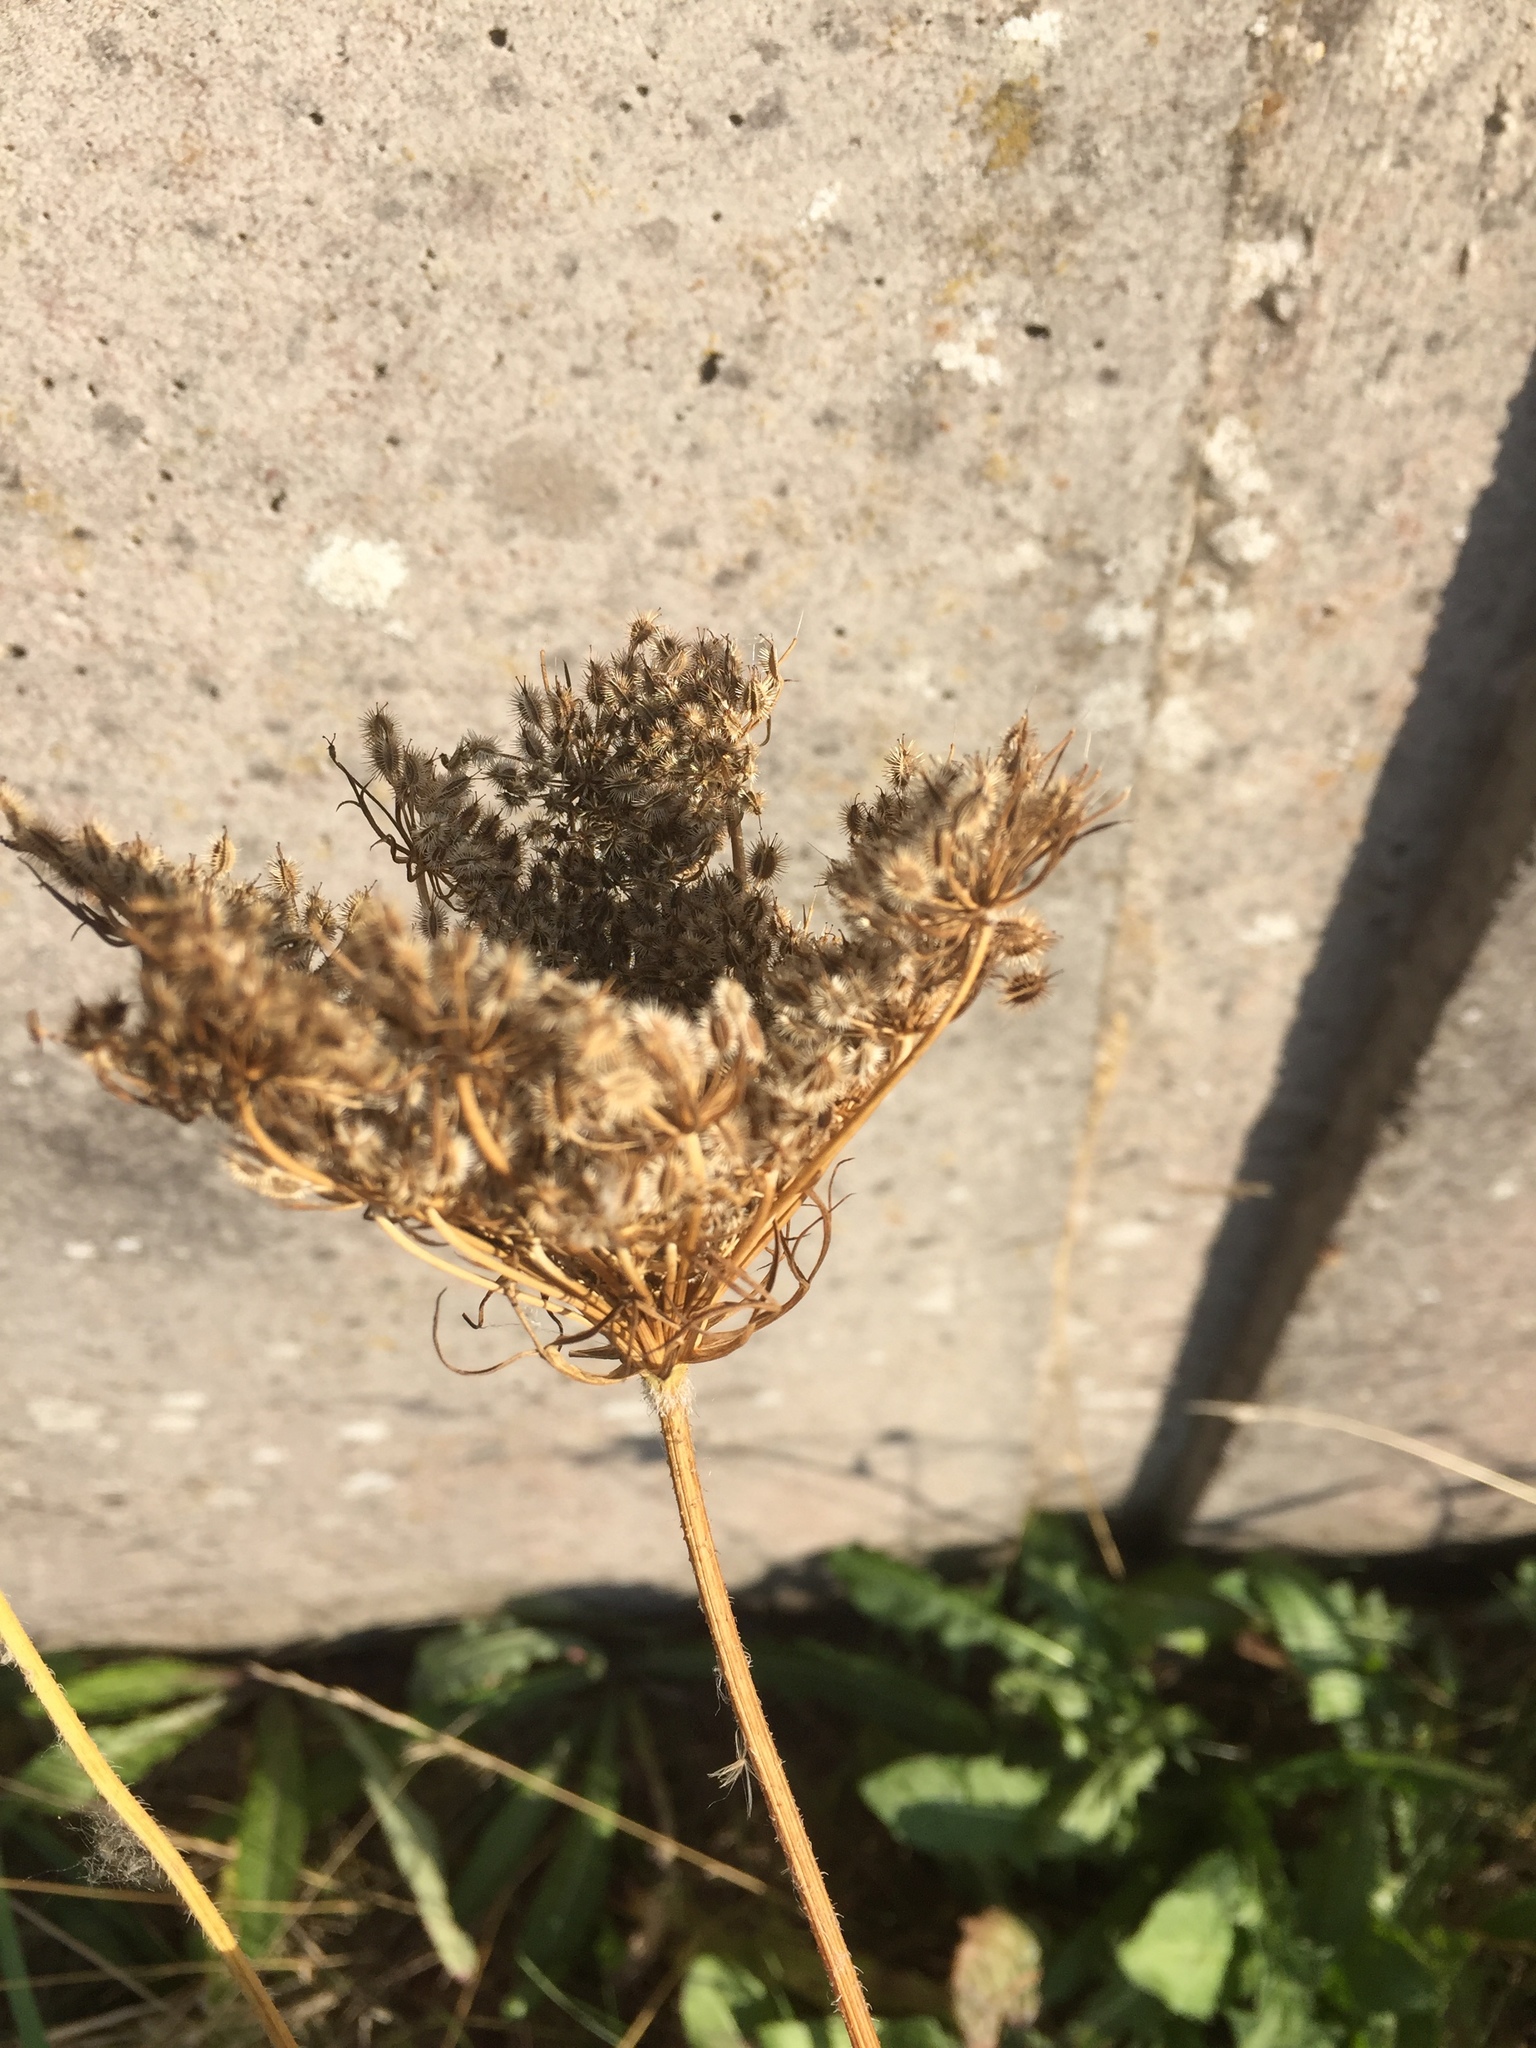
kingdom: Plantae
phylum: Tracheophyta
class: Magnoliopsida
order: Apiales
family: Apiaceae
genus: Daucus
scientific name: Daucus carota
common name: Wild carrot
